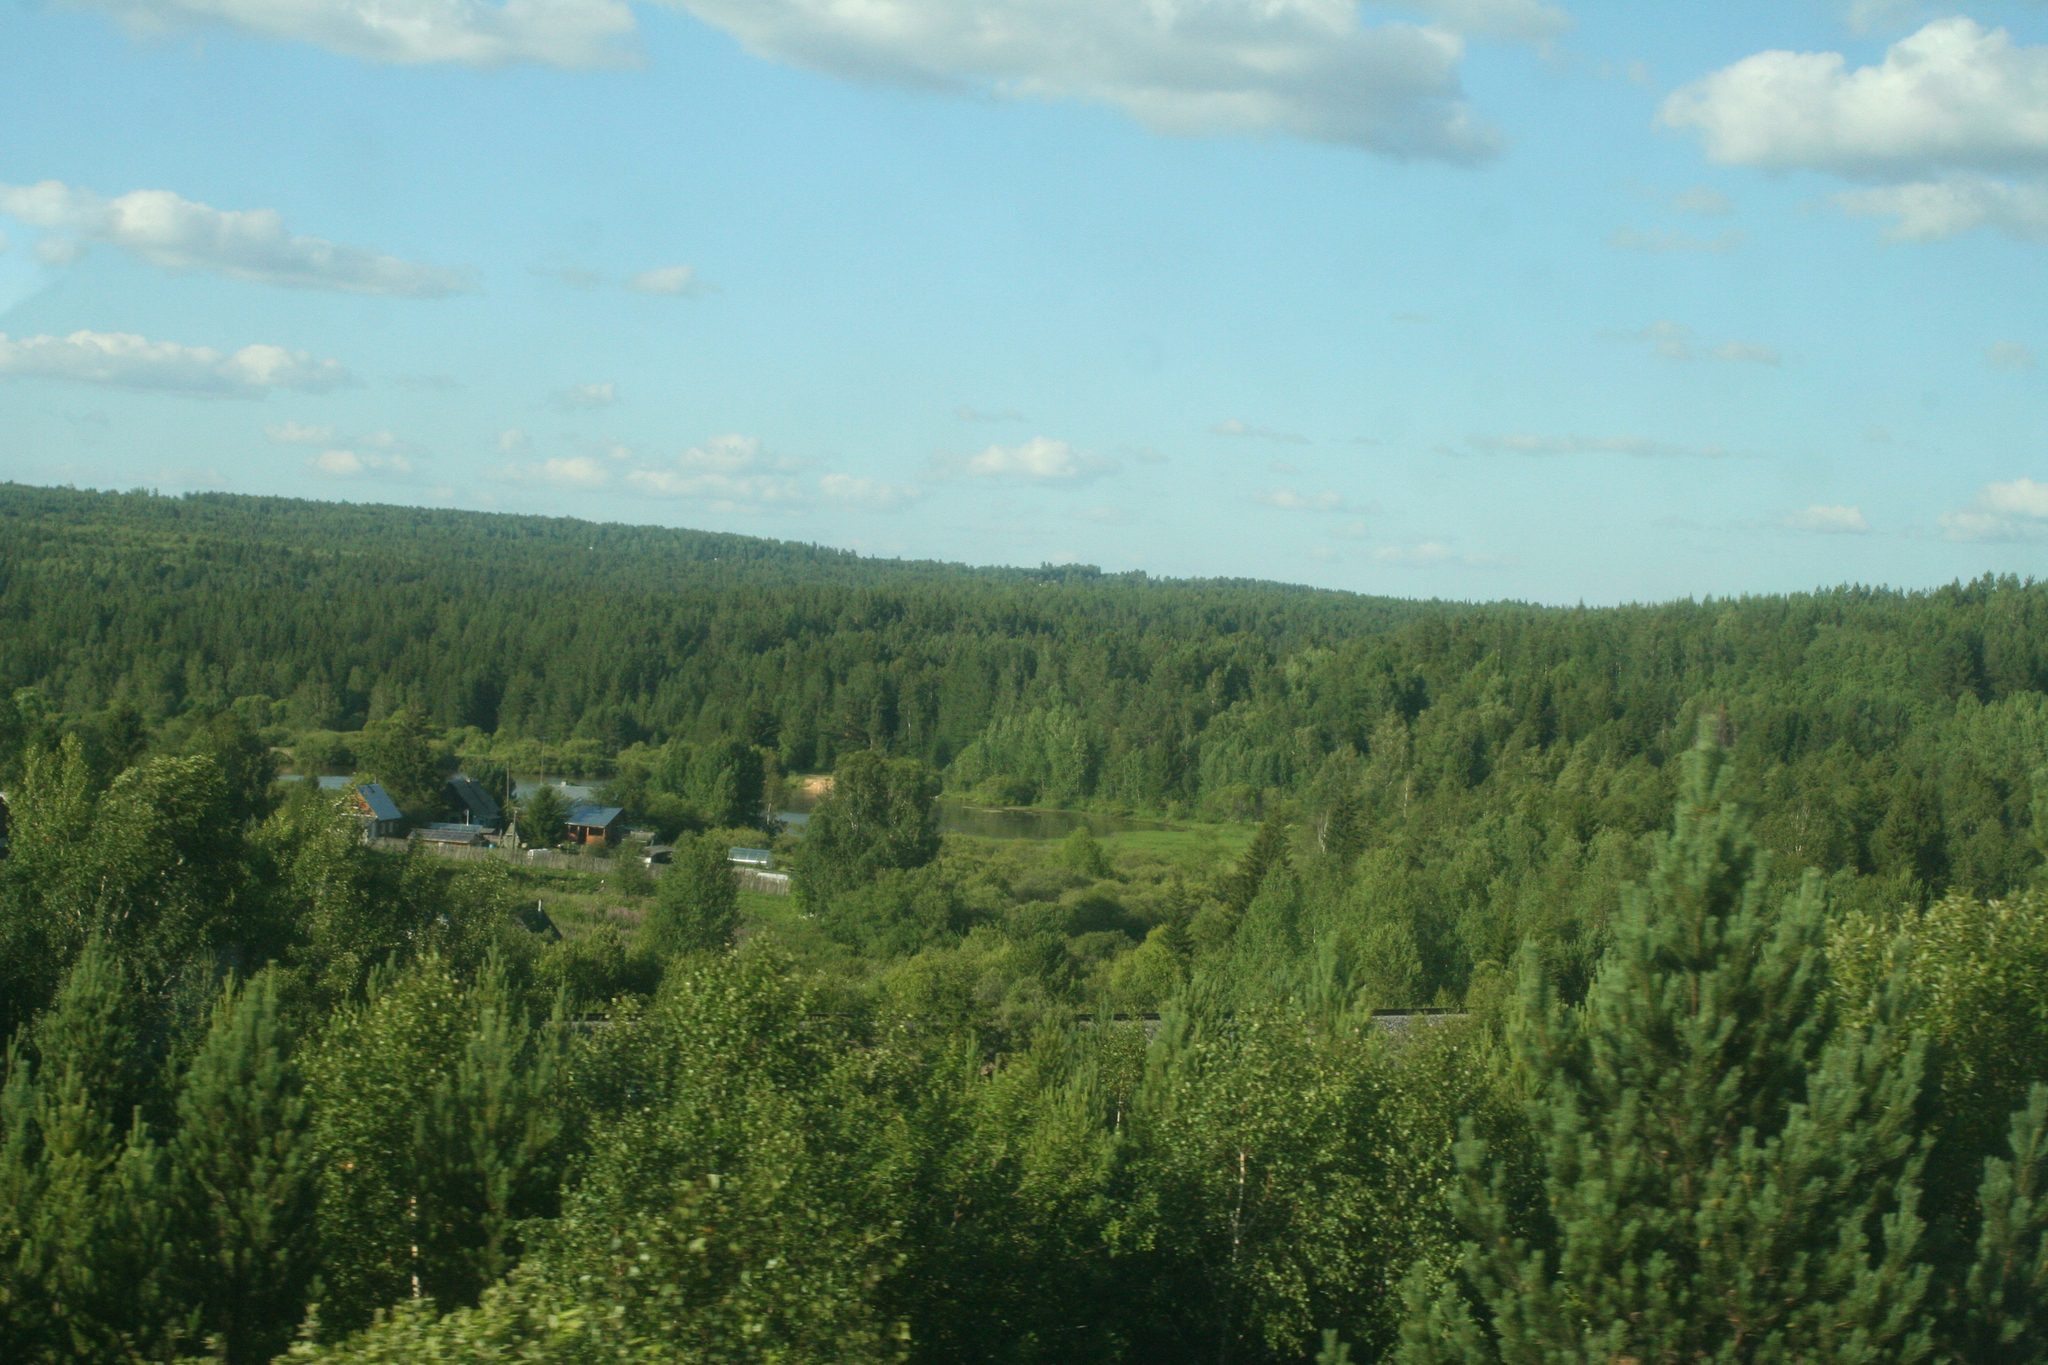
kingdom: Plantae
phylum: Tracheophyta
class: Pinopsida
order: Pinales
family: Pinaceae
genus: Pinus
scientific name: Pinus sylvestris
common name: Scots pine
